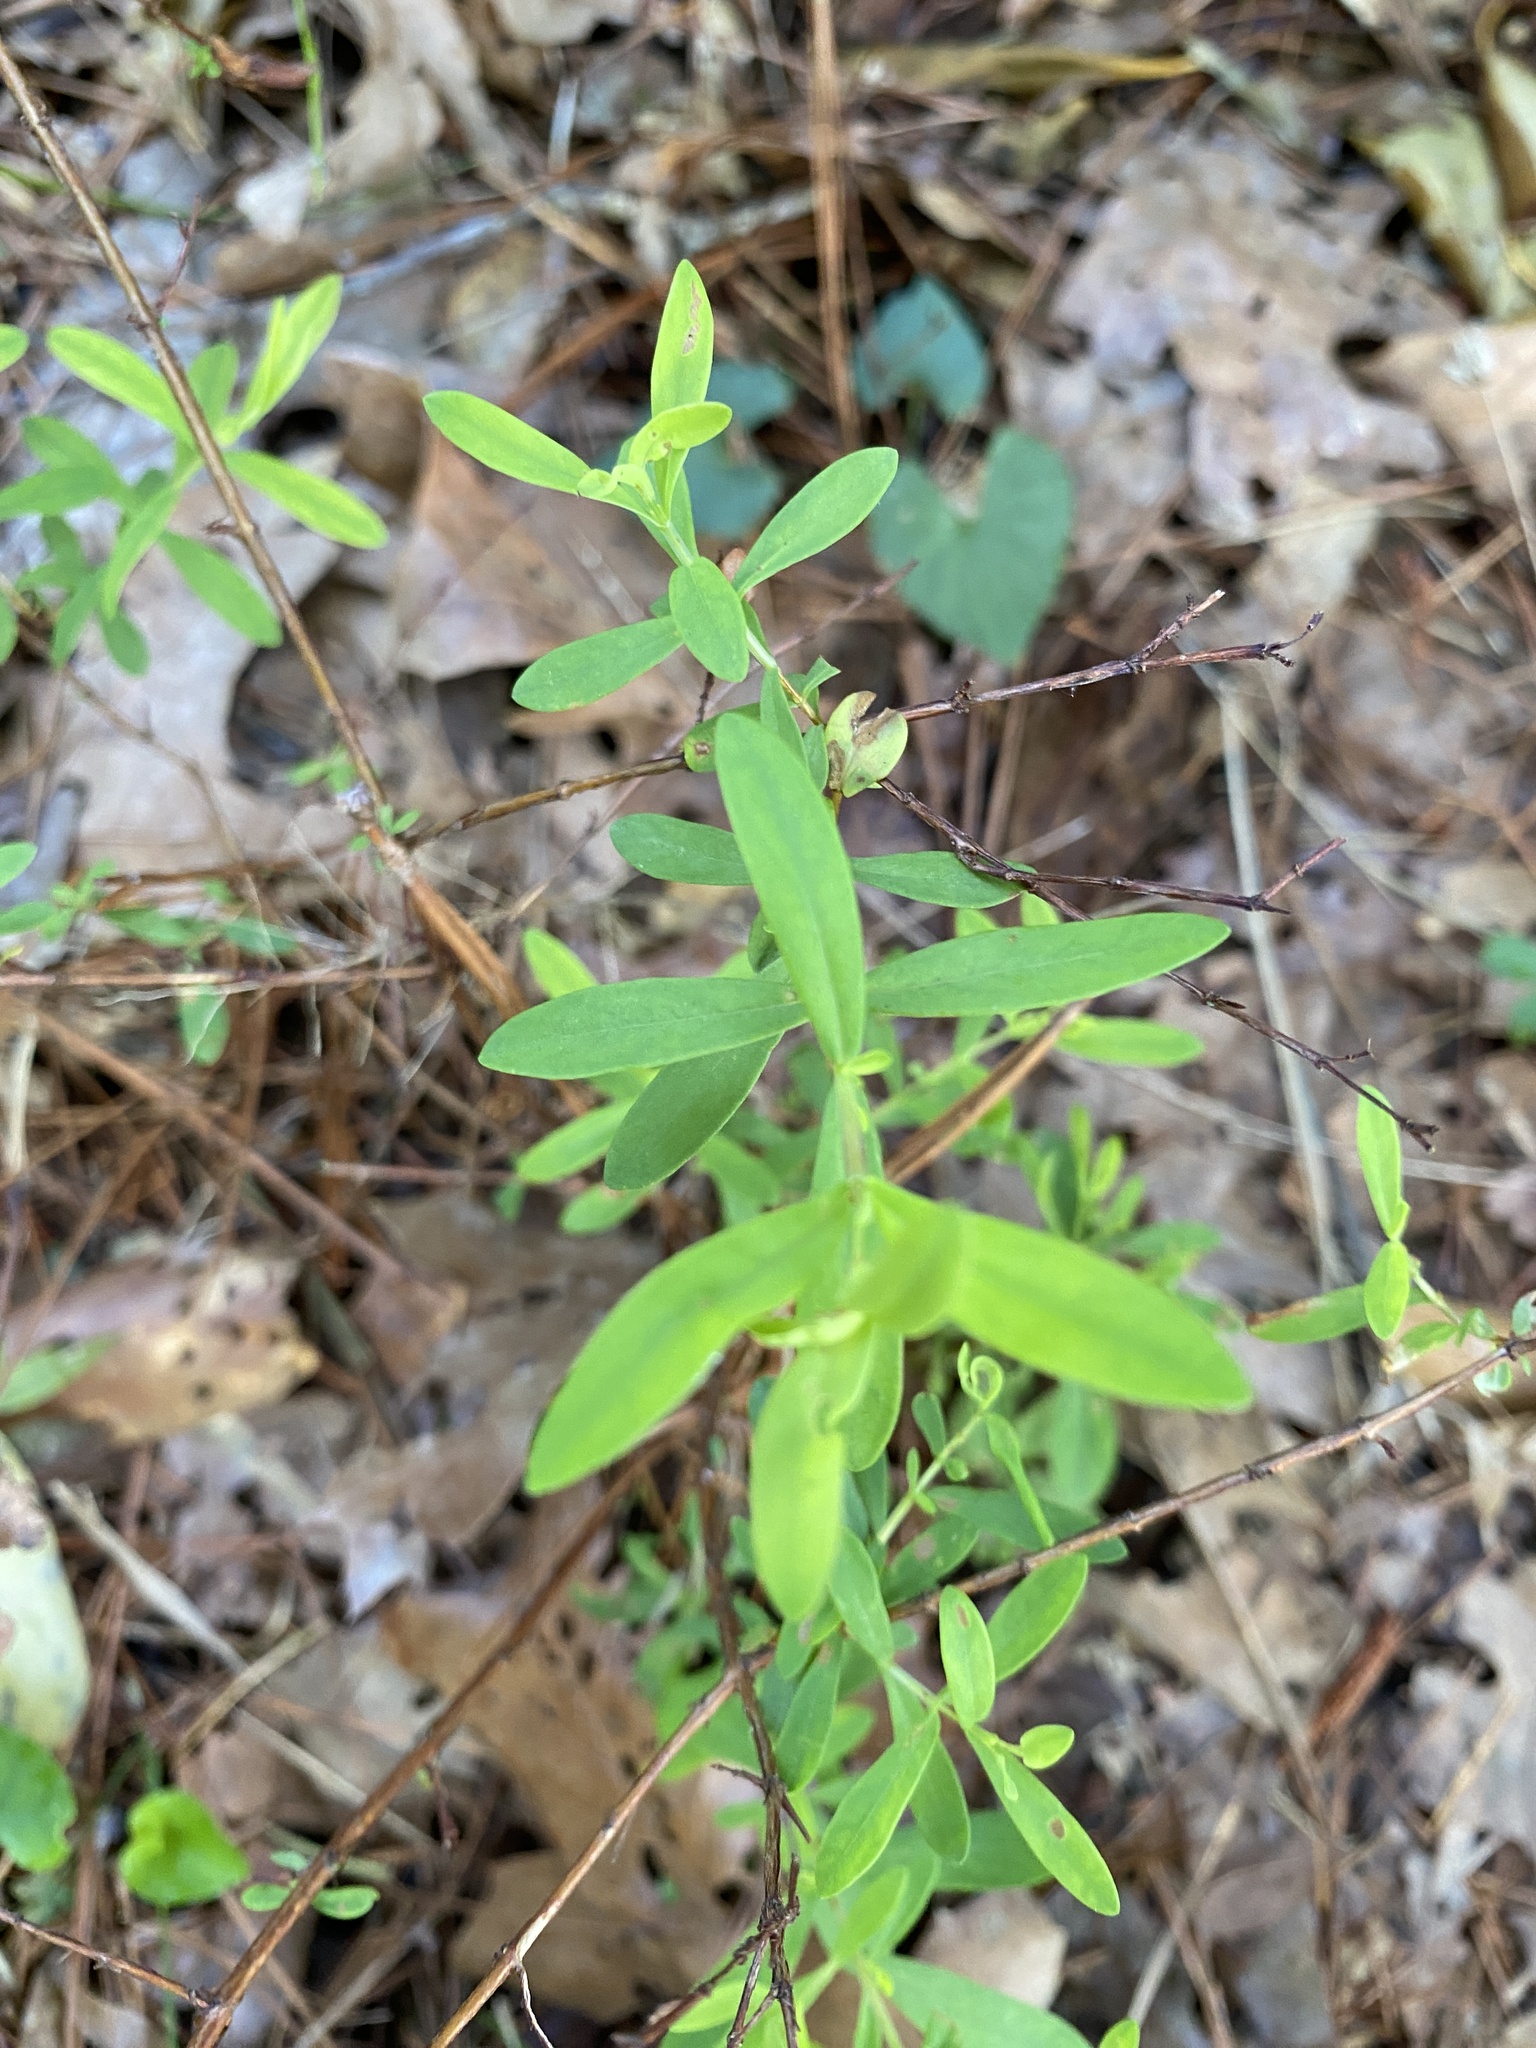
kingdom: Plantae
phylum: Tracheophyta
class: Magnoliopsida
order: Malpighiales
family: Hypericaceae
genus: Hypericum
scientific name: Hypericum hypericoides
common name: St. andrew's cross
